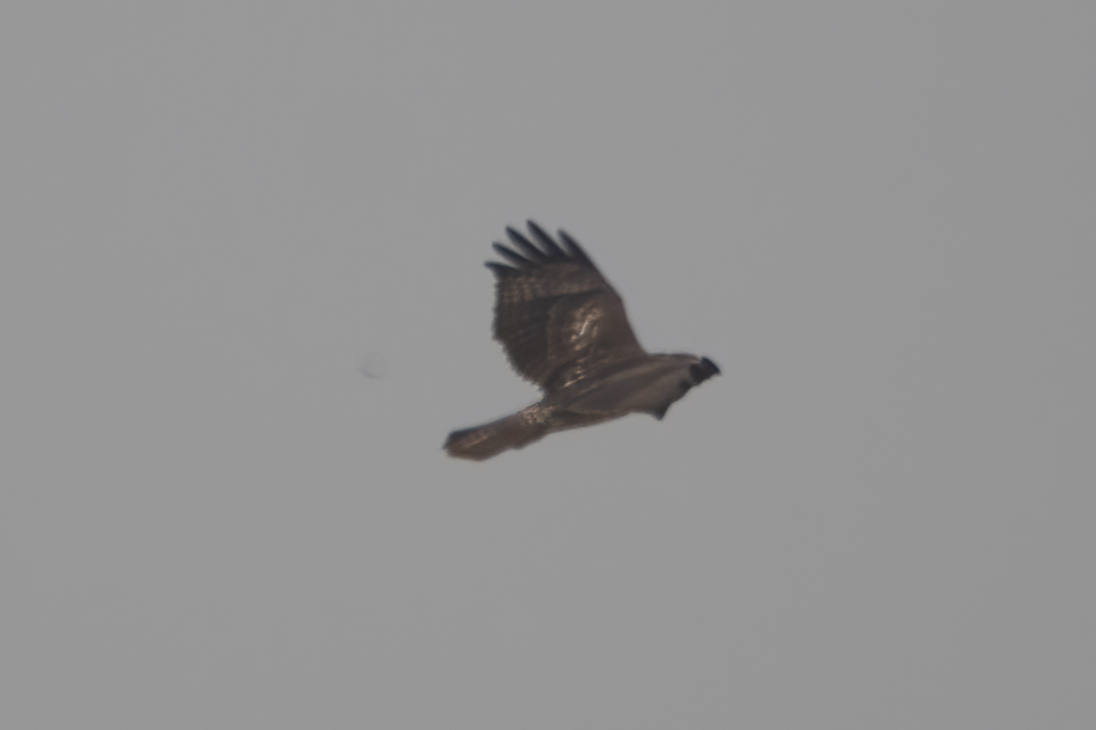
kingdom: Animalia
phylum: Chordata
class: Aves
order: Accipitriformes
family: Accipitridae
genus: Buteo
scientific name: Buteo jamaicensis
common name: Red-tailed hawk
